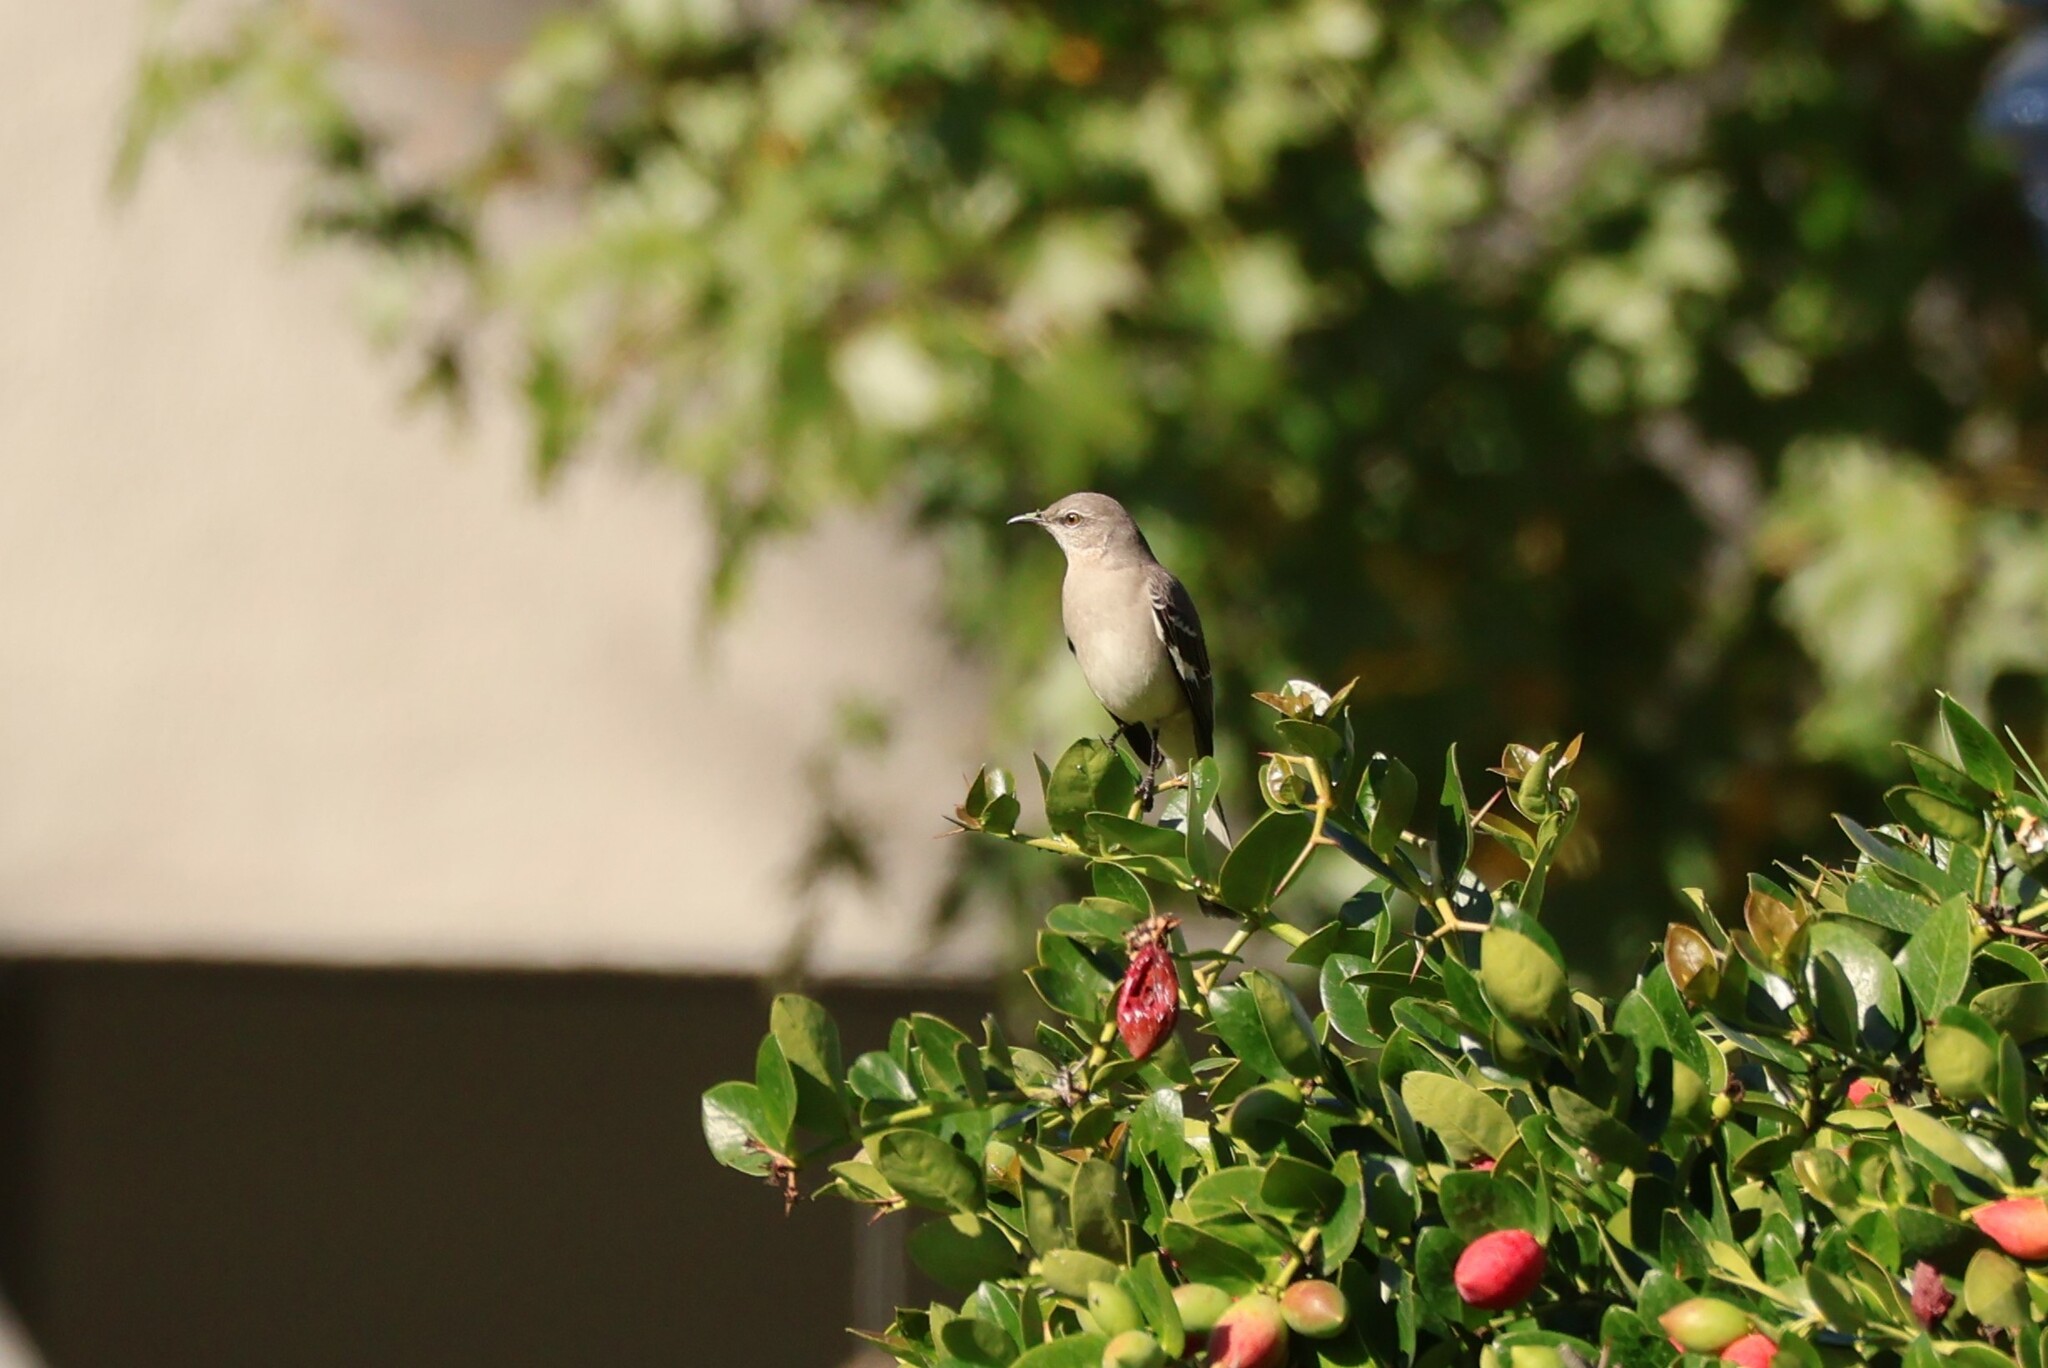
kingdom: Animalia
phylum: Chordata
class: Aves
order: Passeriformes
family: Mimidae
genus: Mimus
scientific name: Mimus polyglottos
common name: Northern mockingbird
